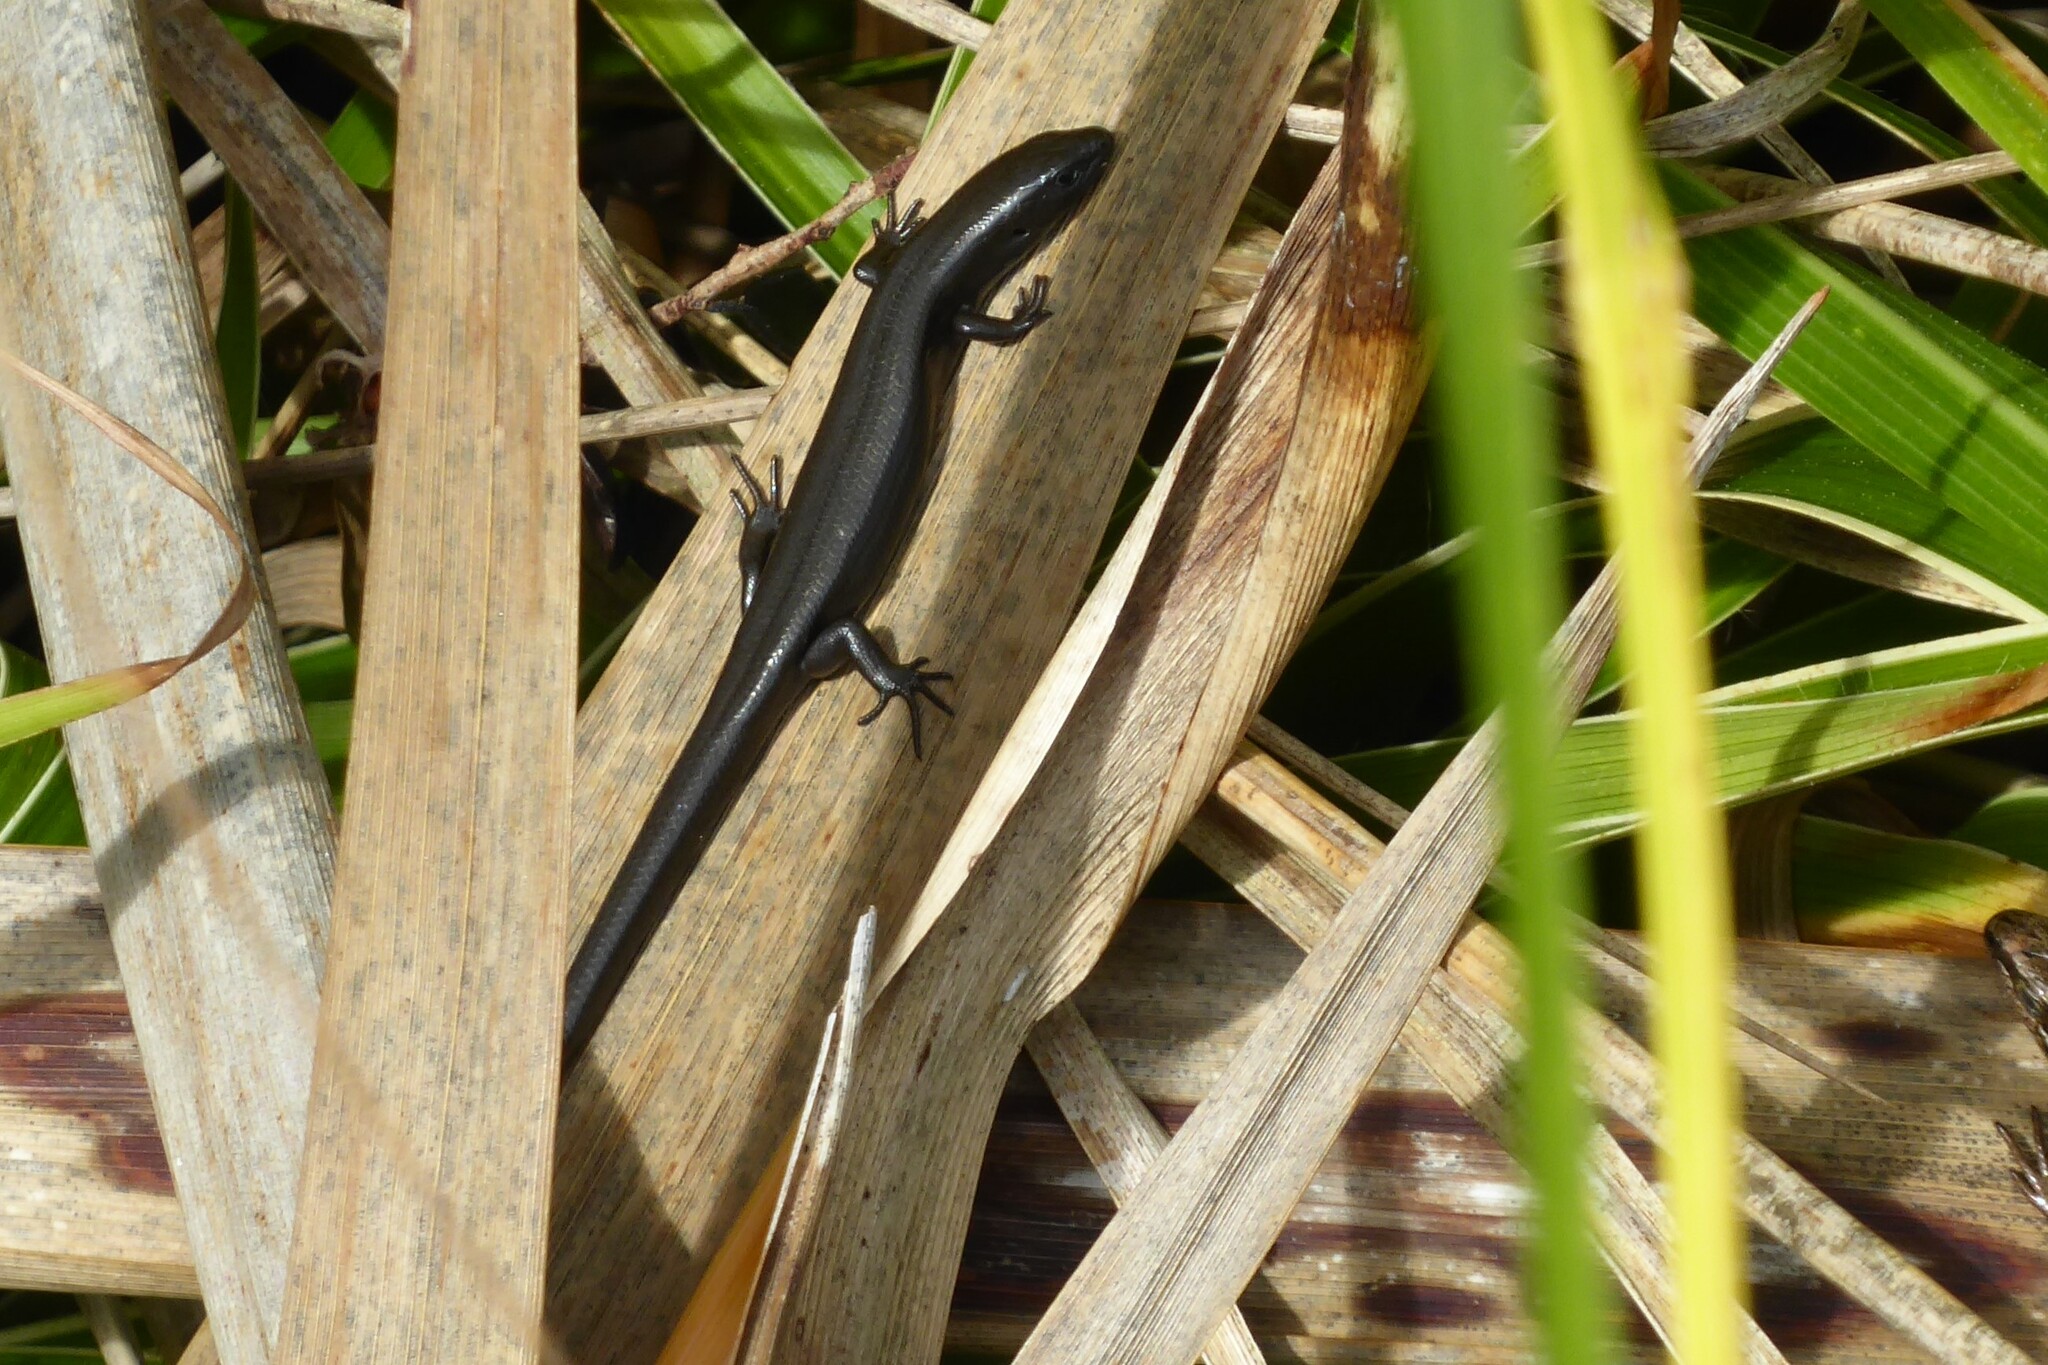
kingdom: Animalia
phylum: Chordata
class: Squamata
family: Scincidae
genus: Oligosoma
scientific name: Oligosoma polychroma
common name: Common new zealand skink
